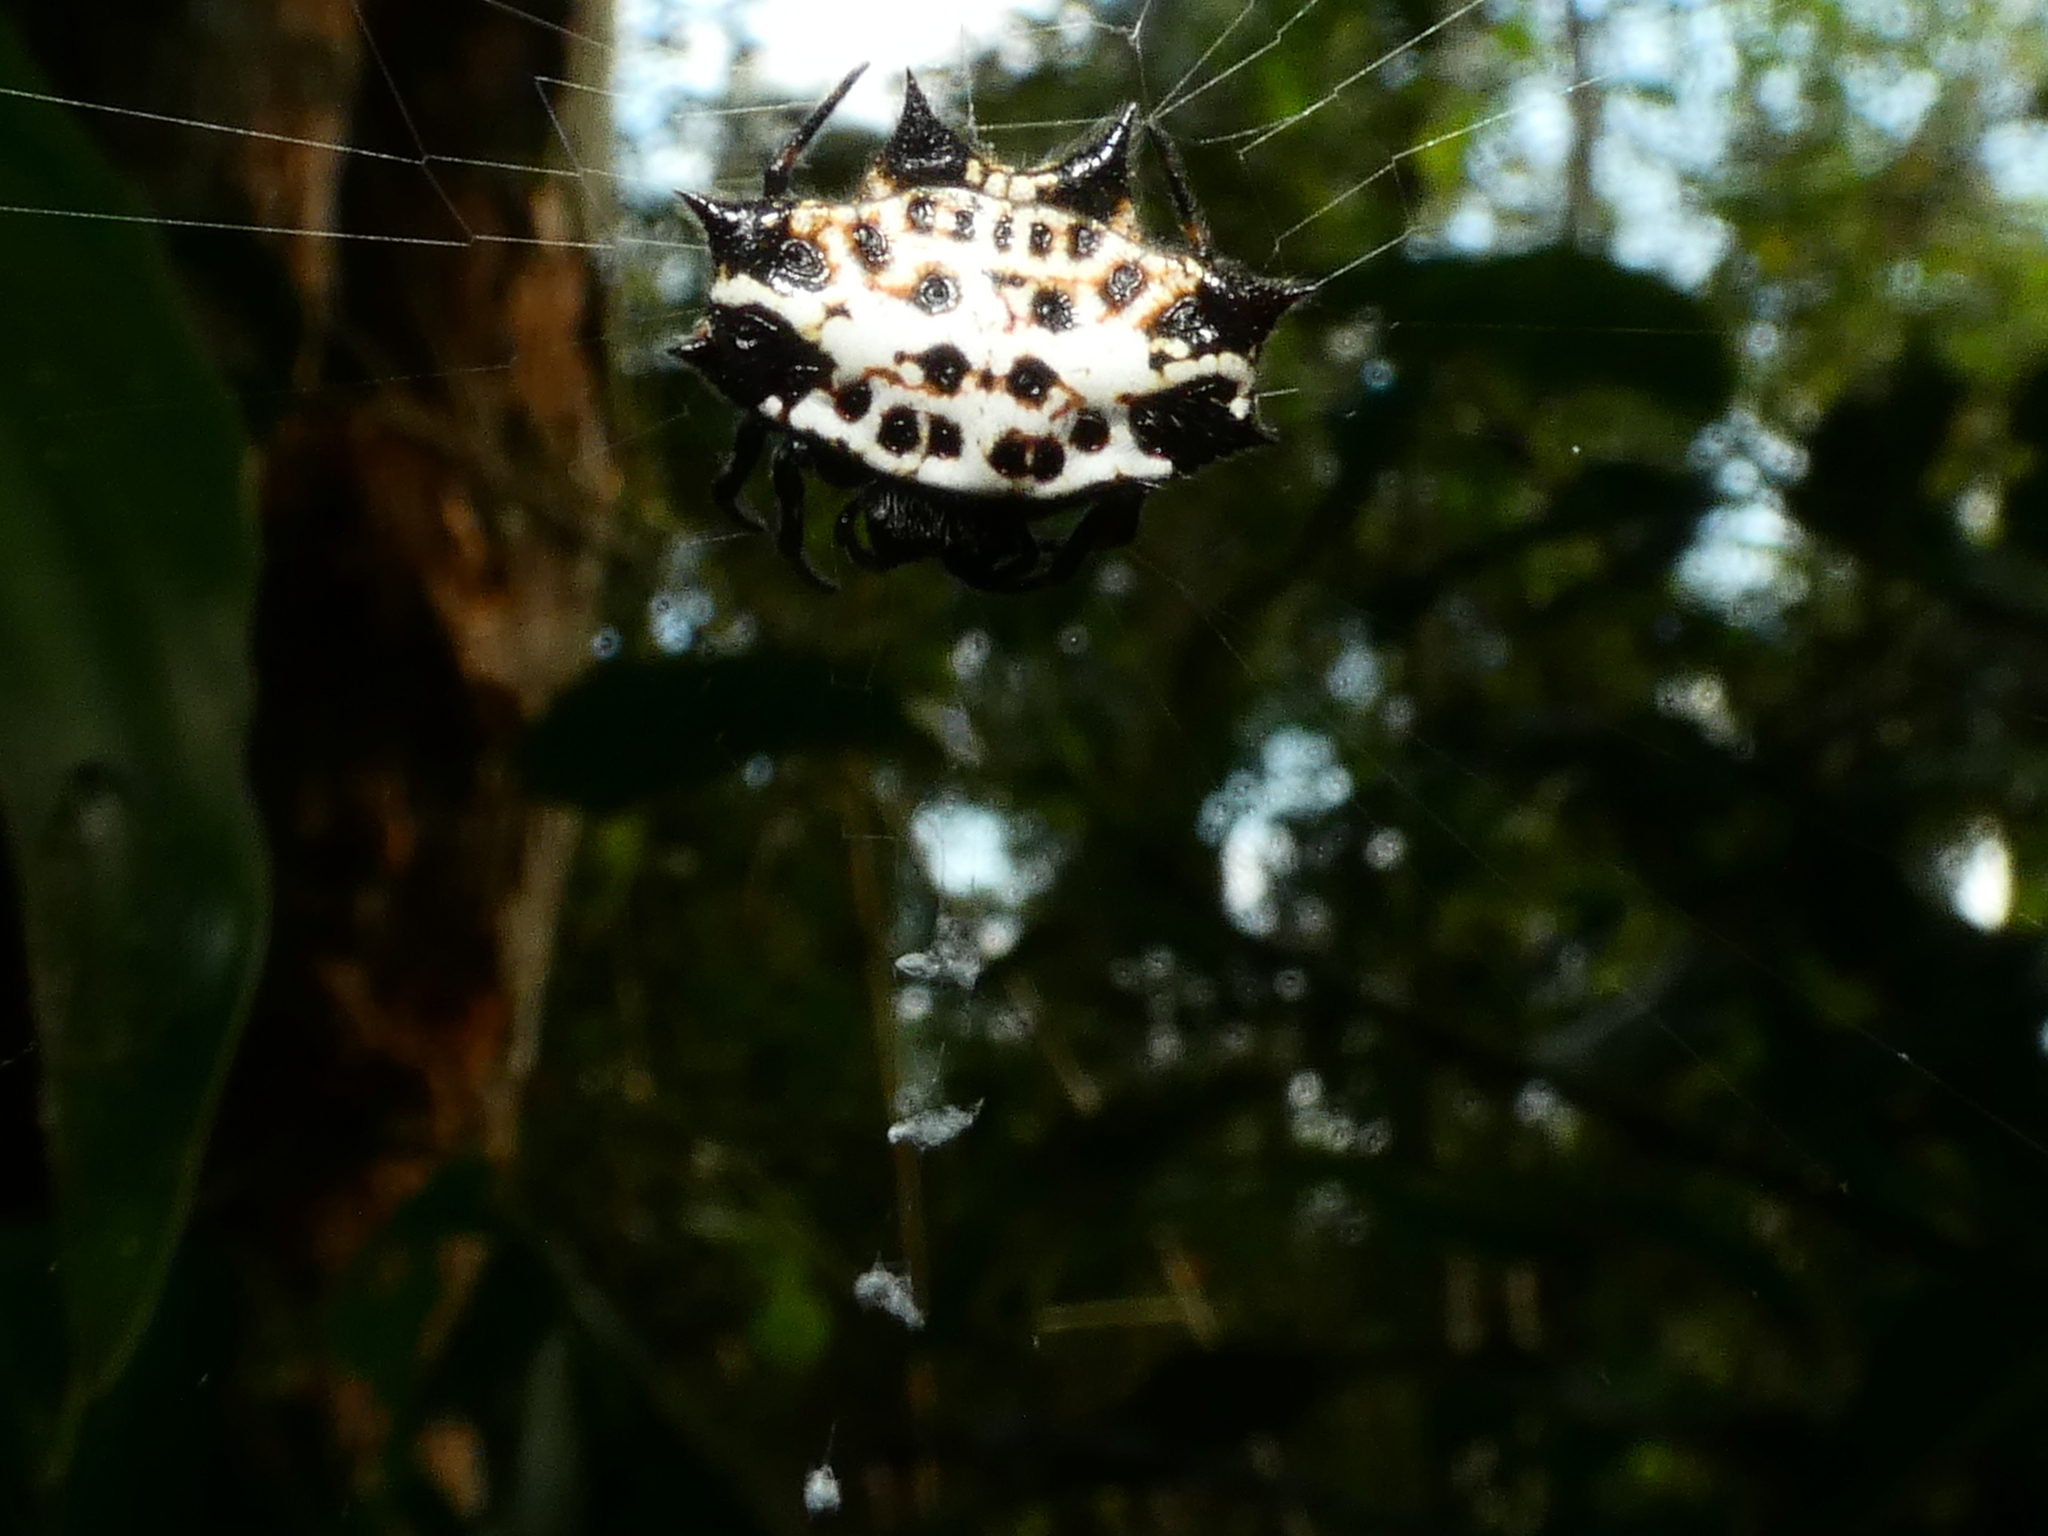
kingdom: Animalia
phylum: Arthropoda
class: Arachnida
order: Araneae
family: Araneidae
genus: Gasteracantha
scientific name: Gasteracantha cancriformis
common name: Orb weavers
